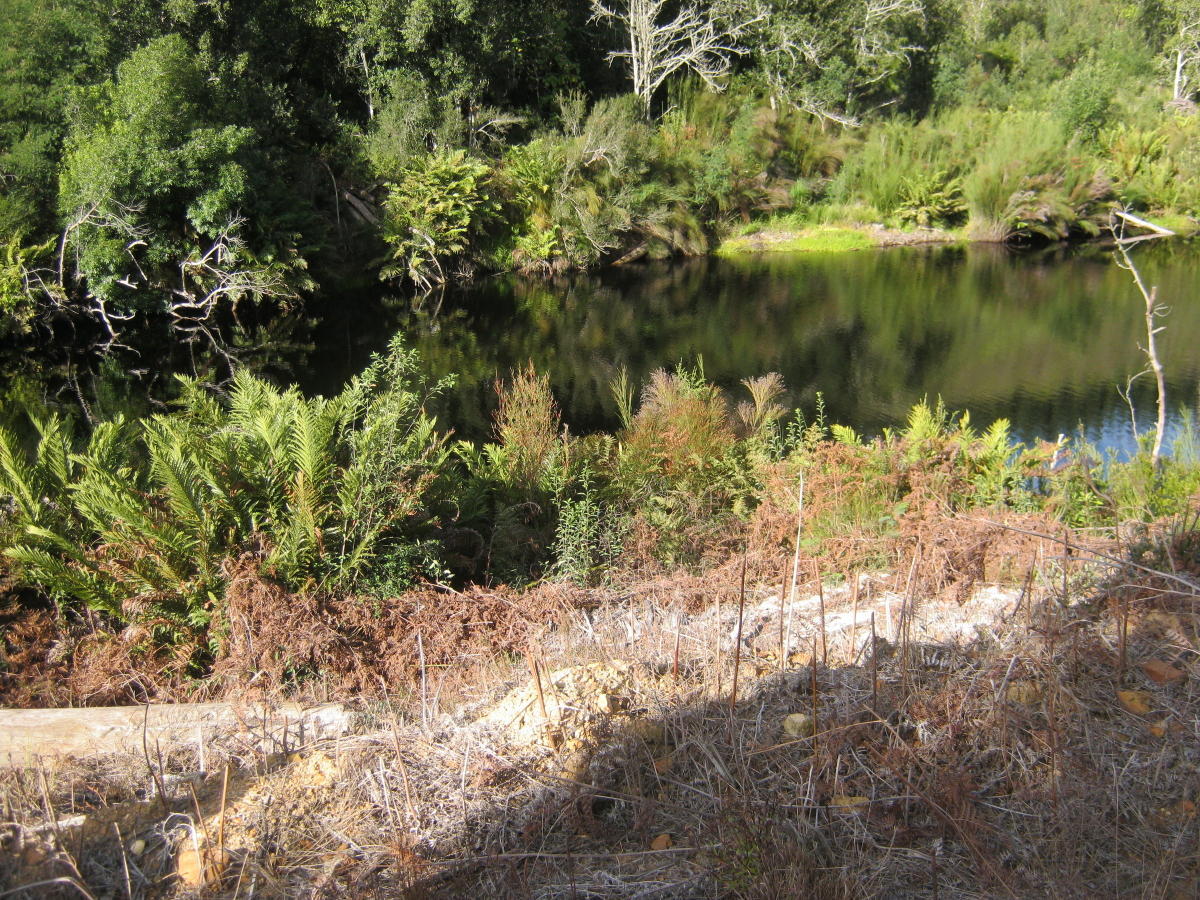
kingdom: Plantae
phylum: Tracheophyta
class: Polypodiopsida
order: Polypodiales
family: Blechnaceae
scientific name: Blechnaceae
